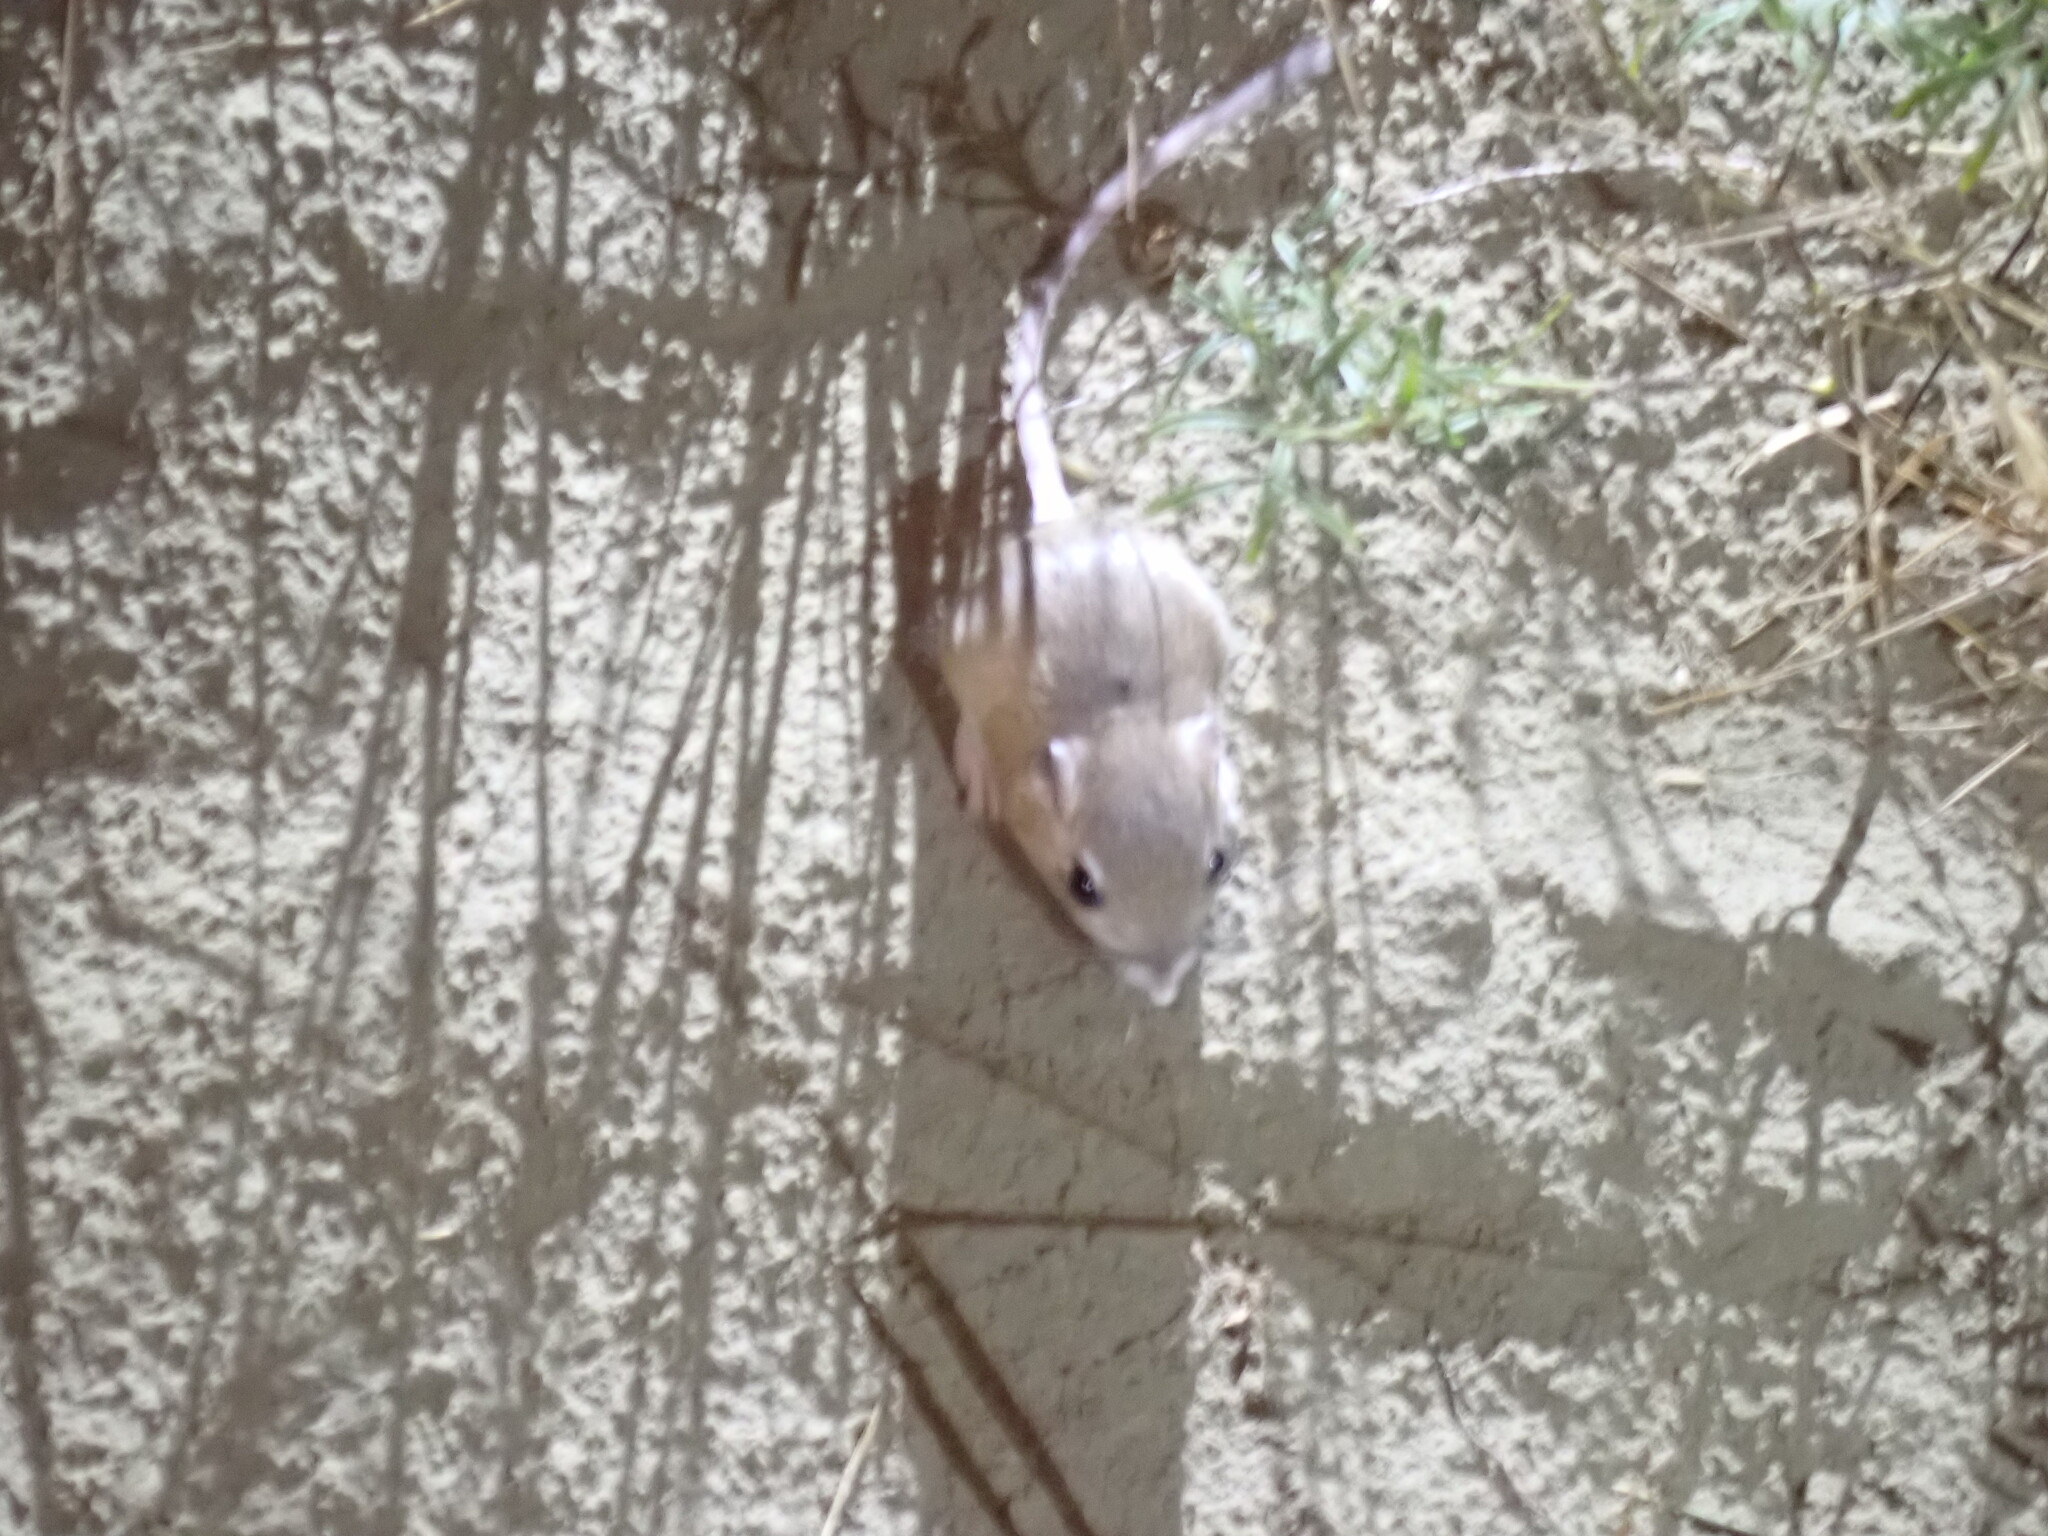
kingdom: Animalia
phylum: Chordata
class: Mammalia
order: Rodentia
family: Heteromyidae
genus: Dipodomys
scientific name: Dipodomys ordii
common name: Ord's kangaroo rat
